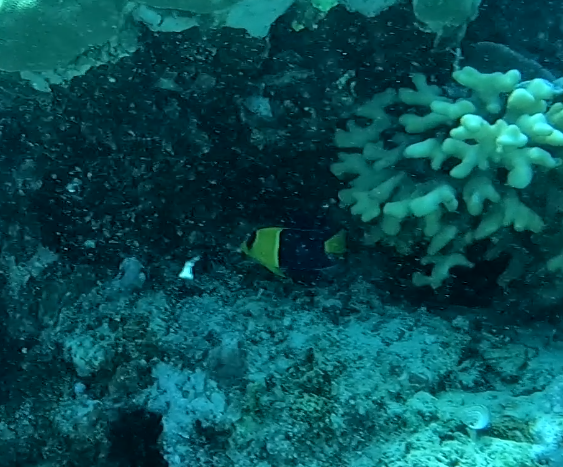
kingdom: Animalia
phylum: Chordata
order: Perciformes
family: Pomacanthidae
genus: Centropyge
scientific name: Centropyge bicolor
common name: Bicolor angelfish
